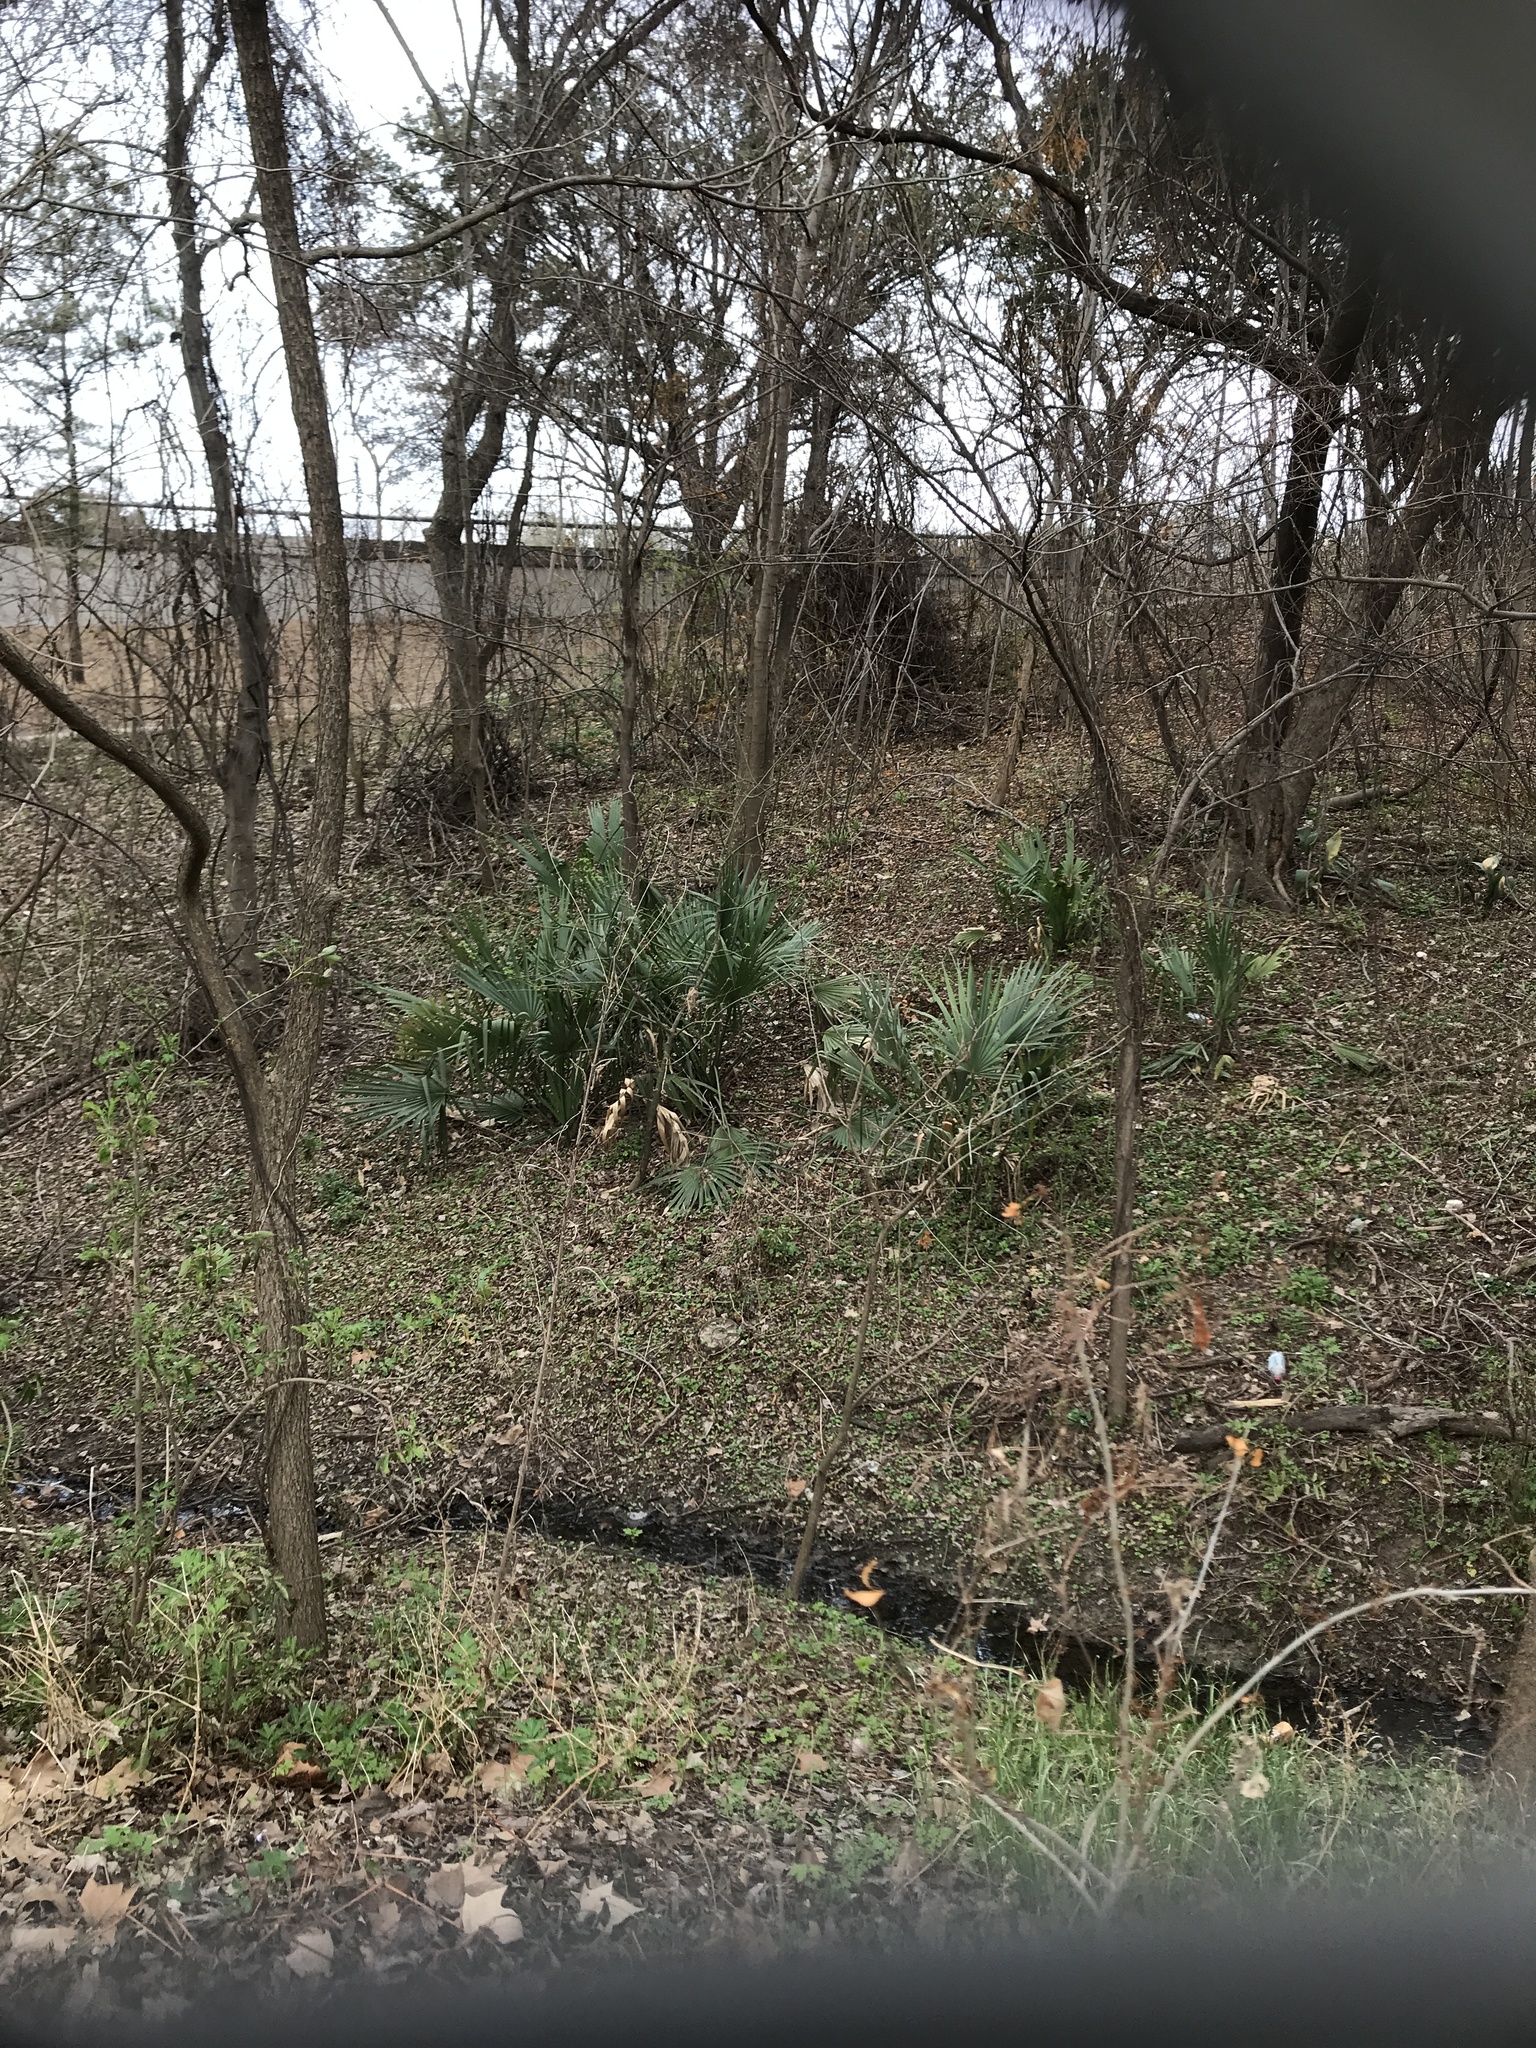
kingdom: Plantae
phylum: Tracheophyta
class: Liliopsida
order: Arecales
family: Arecaceae
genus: Sabal
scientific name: Sabal minor
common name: Dwarf palmetto
